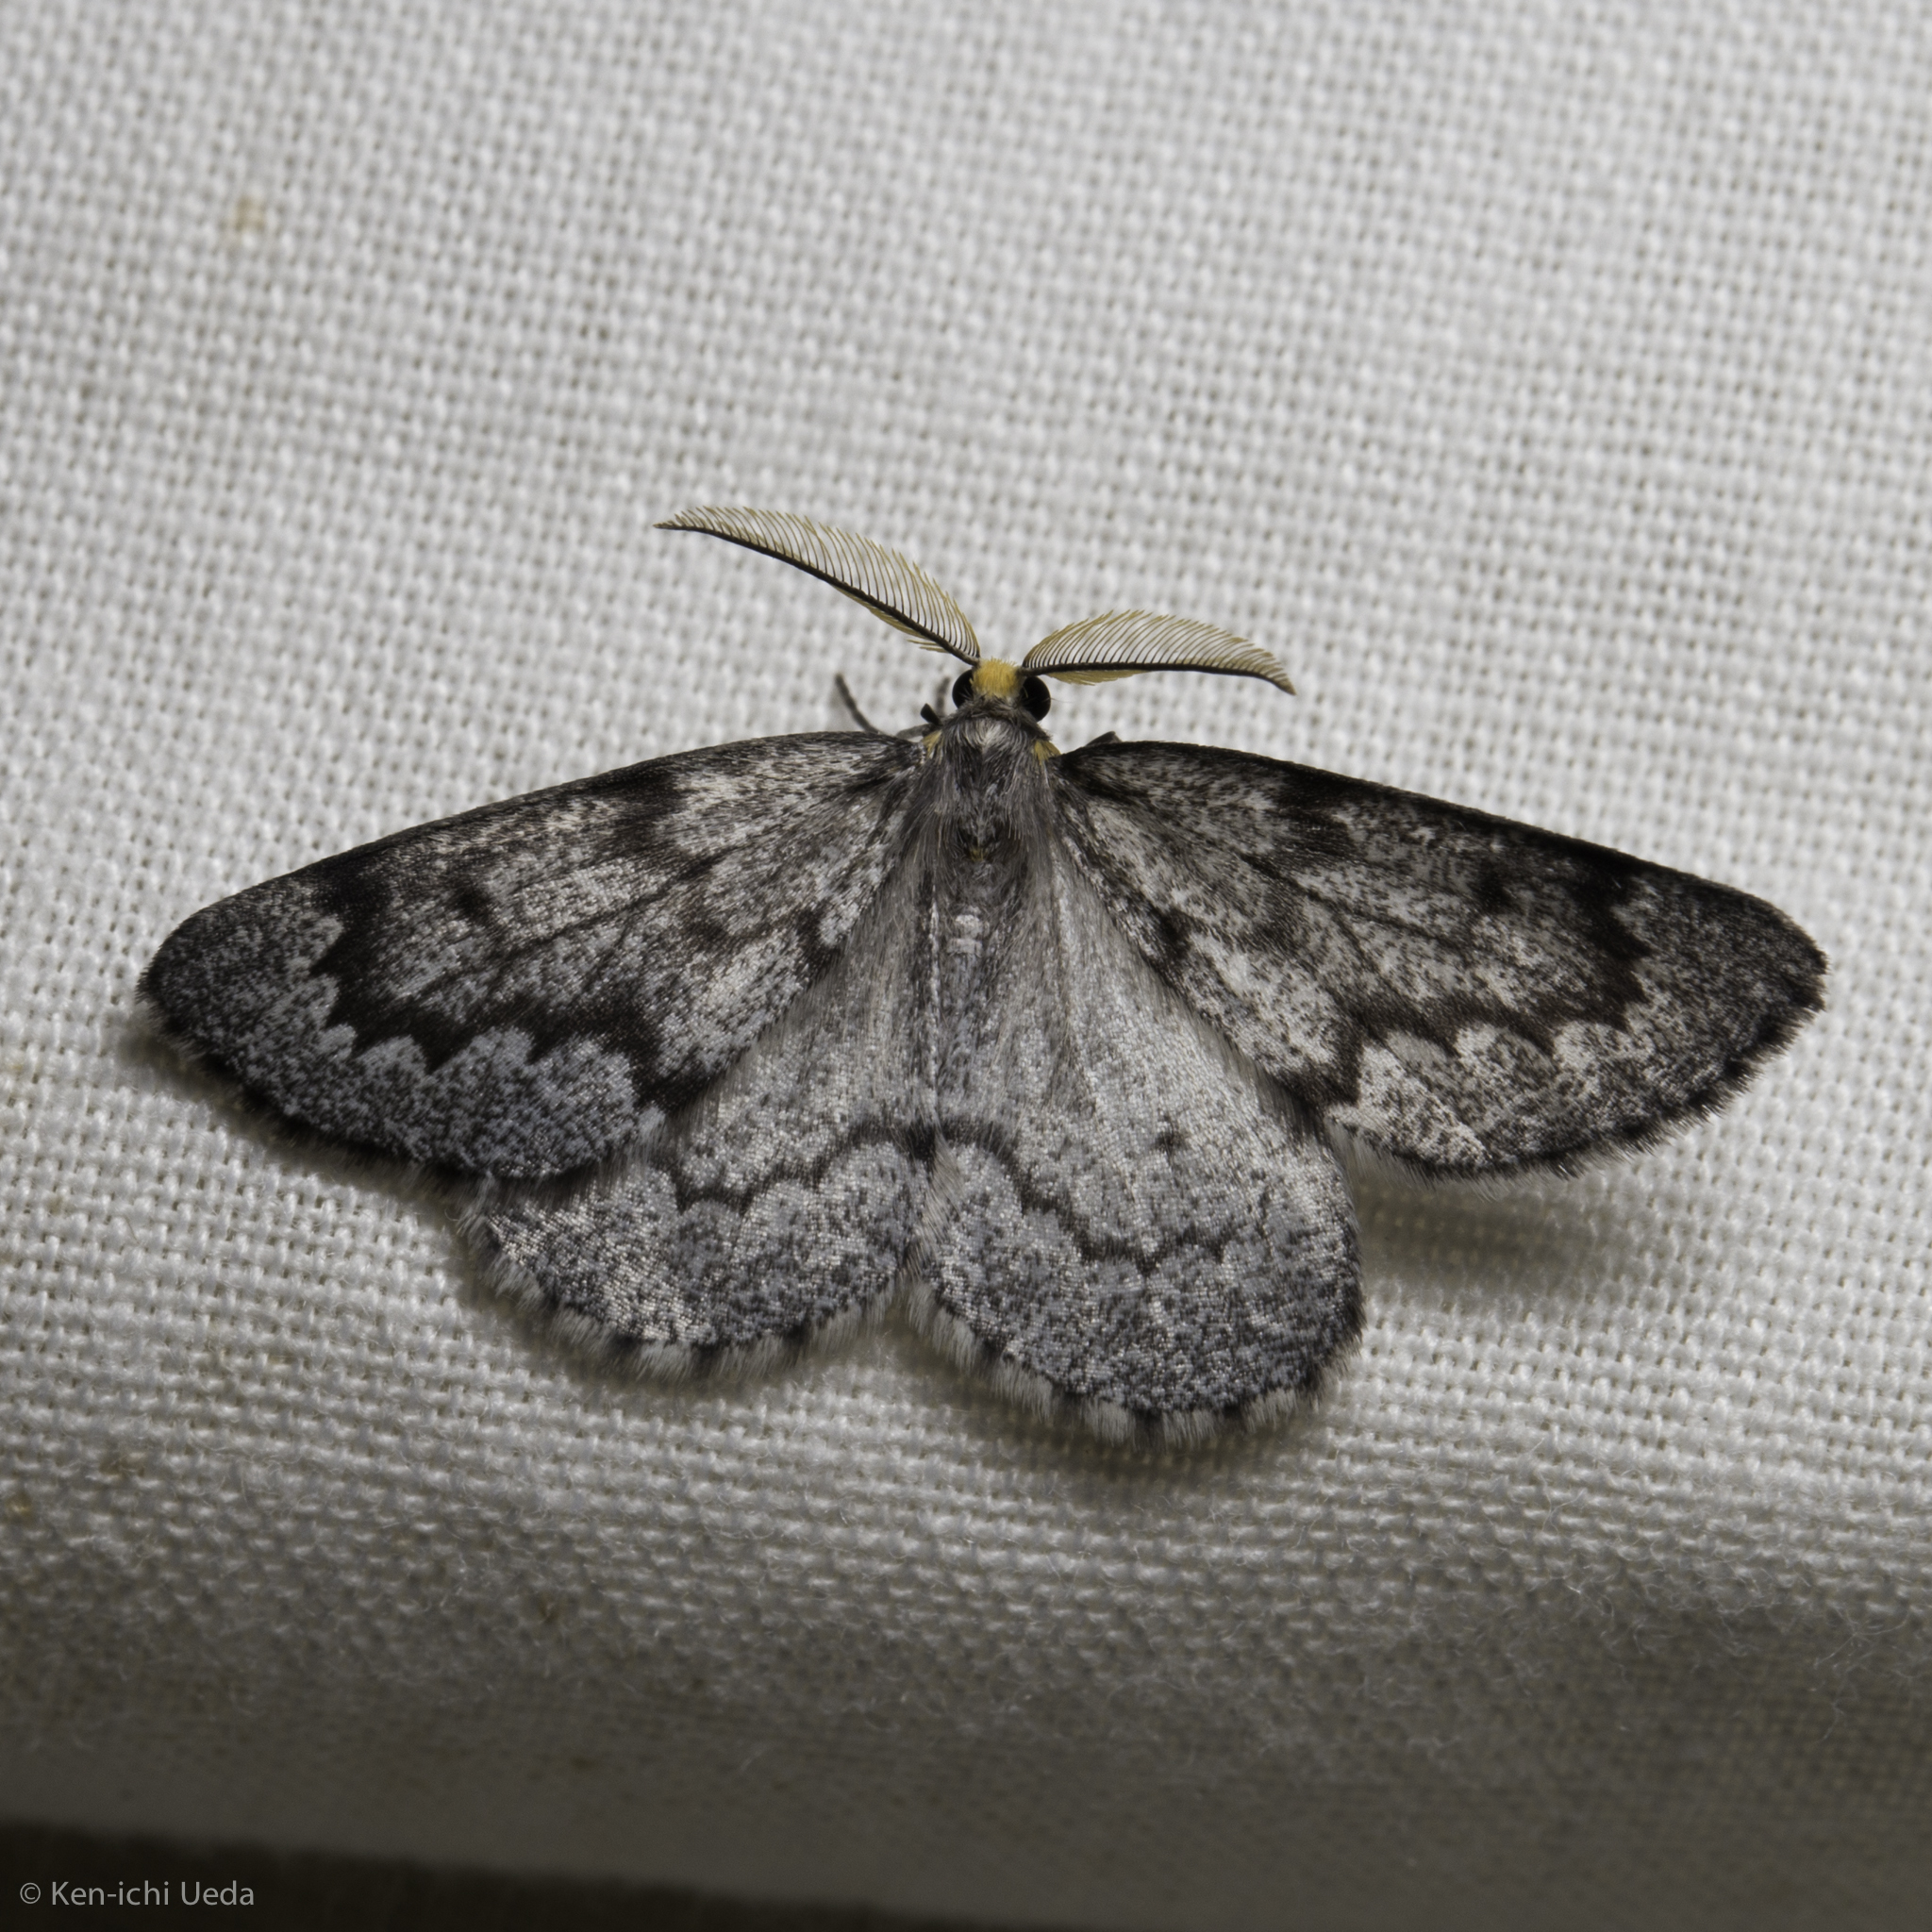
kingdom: Animalia
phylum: Arthropoda
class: Insecta
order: Lepidoptera
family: Geometridae
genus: Nepytia
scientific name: Nepytia canosaria
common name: False hemlock looper
